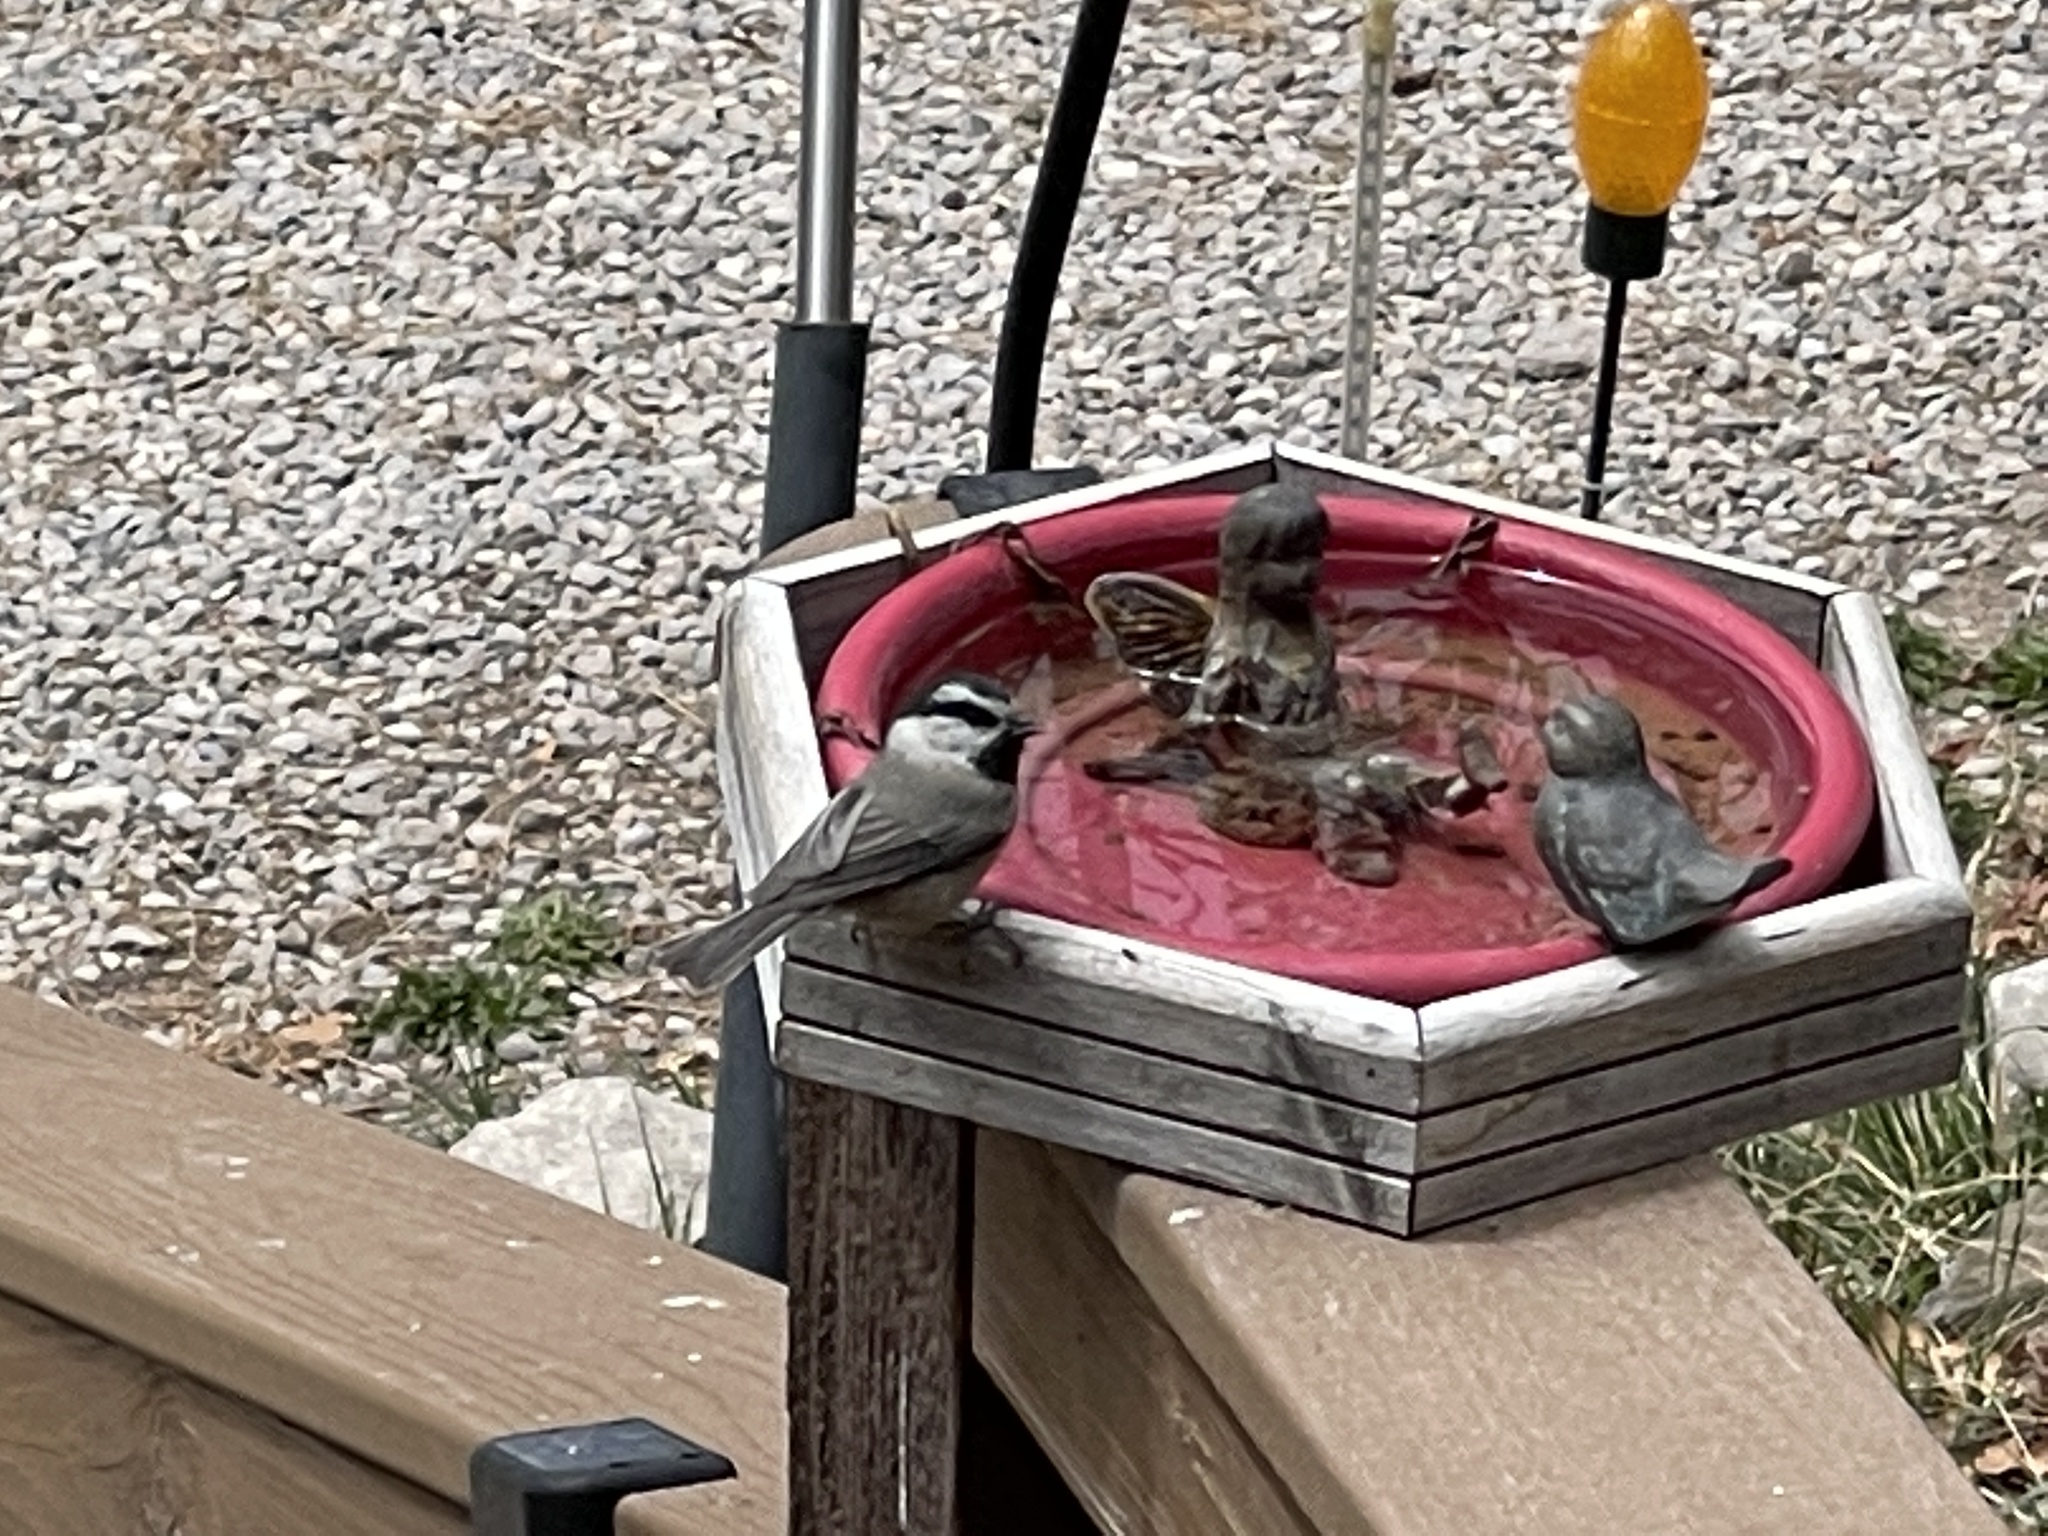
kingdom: Animalia
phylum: Chordata
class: Aves
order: Passeriformes
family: Paridae
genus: Poecile
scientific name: Poecile gambeli
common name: Mountain chickadee
